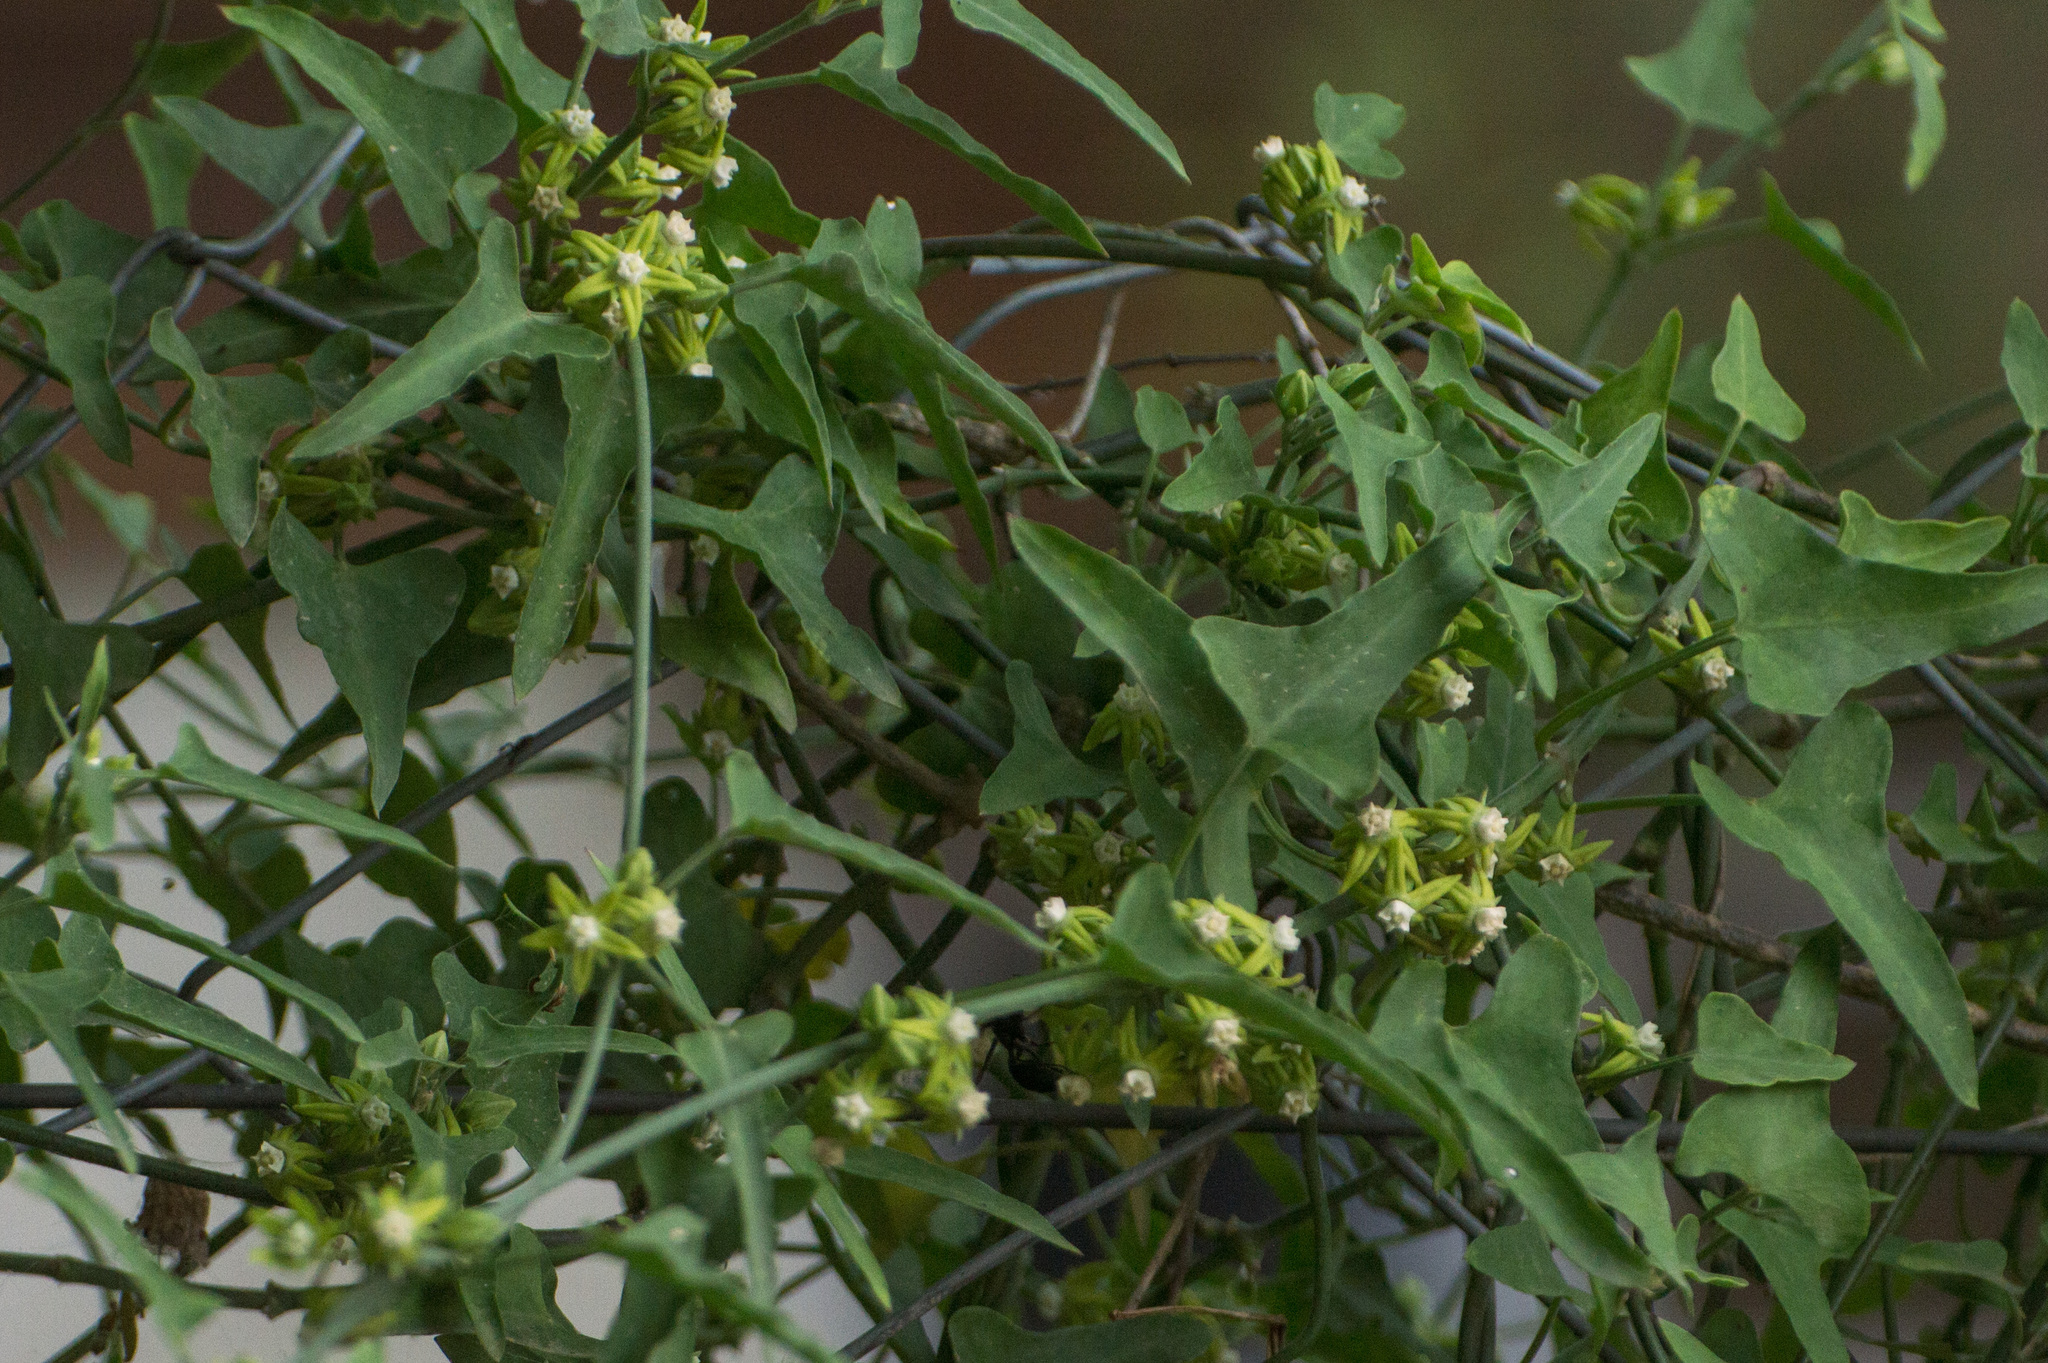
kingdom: Plantae
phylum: Tracheophyta
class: Magnoliopsida
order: Gentianales
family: Apocynaceae
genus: Araujia
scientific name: Araujia brachystephana
